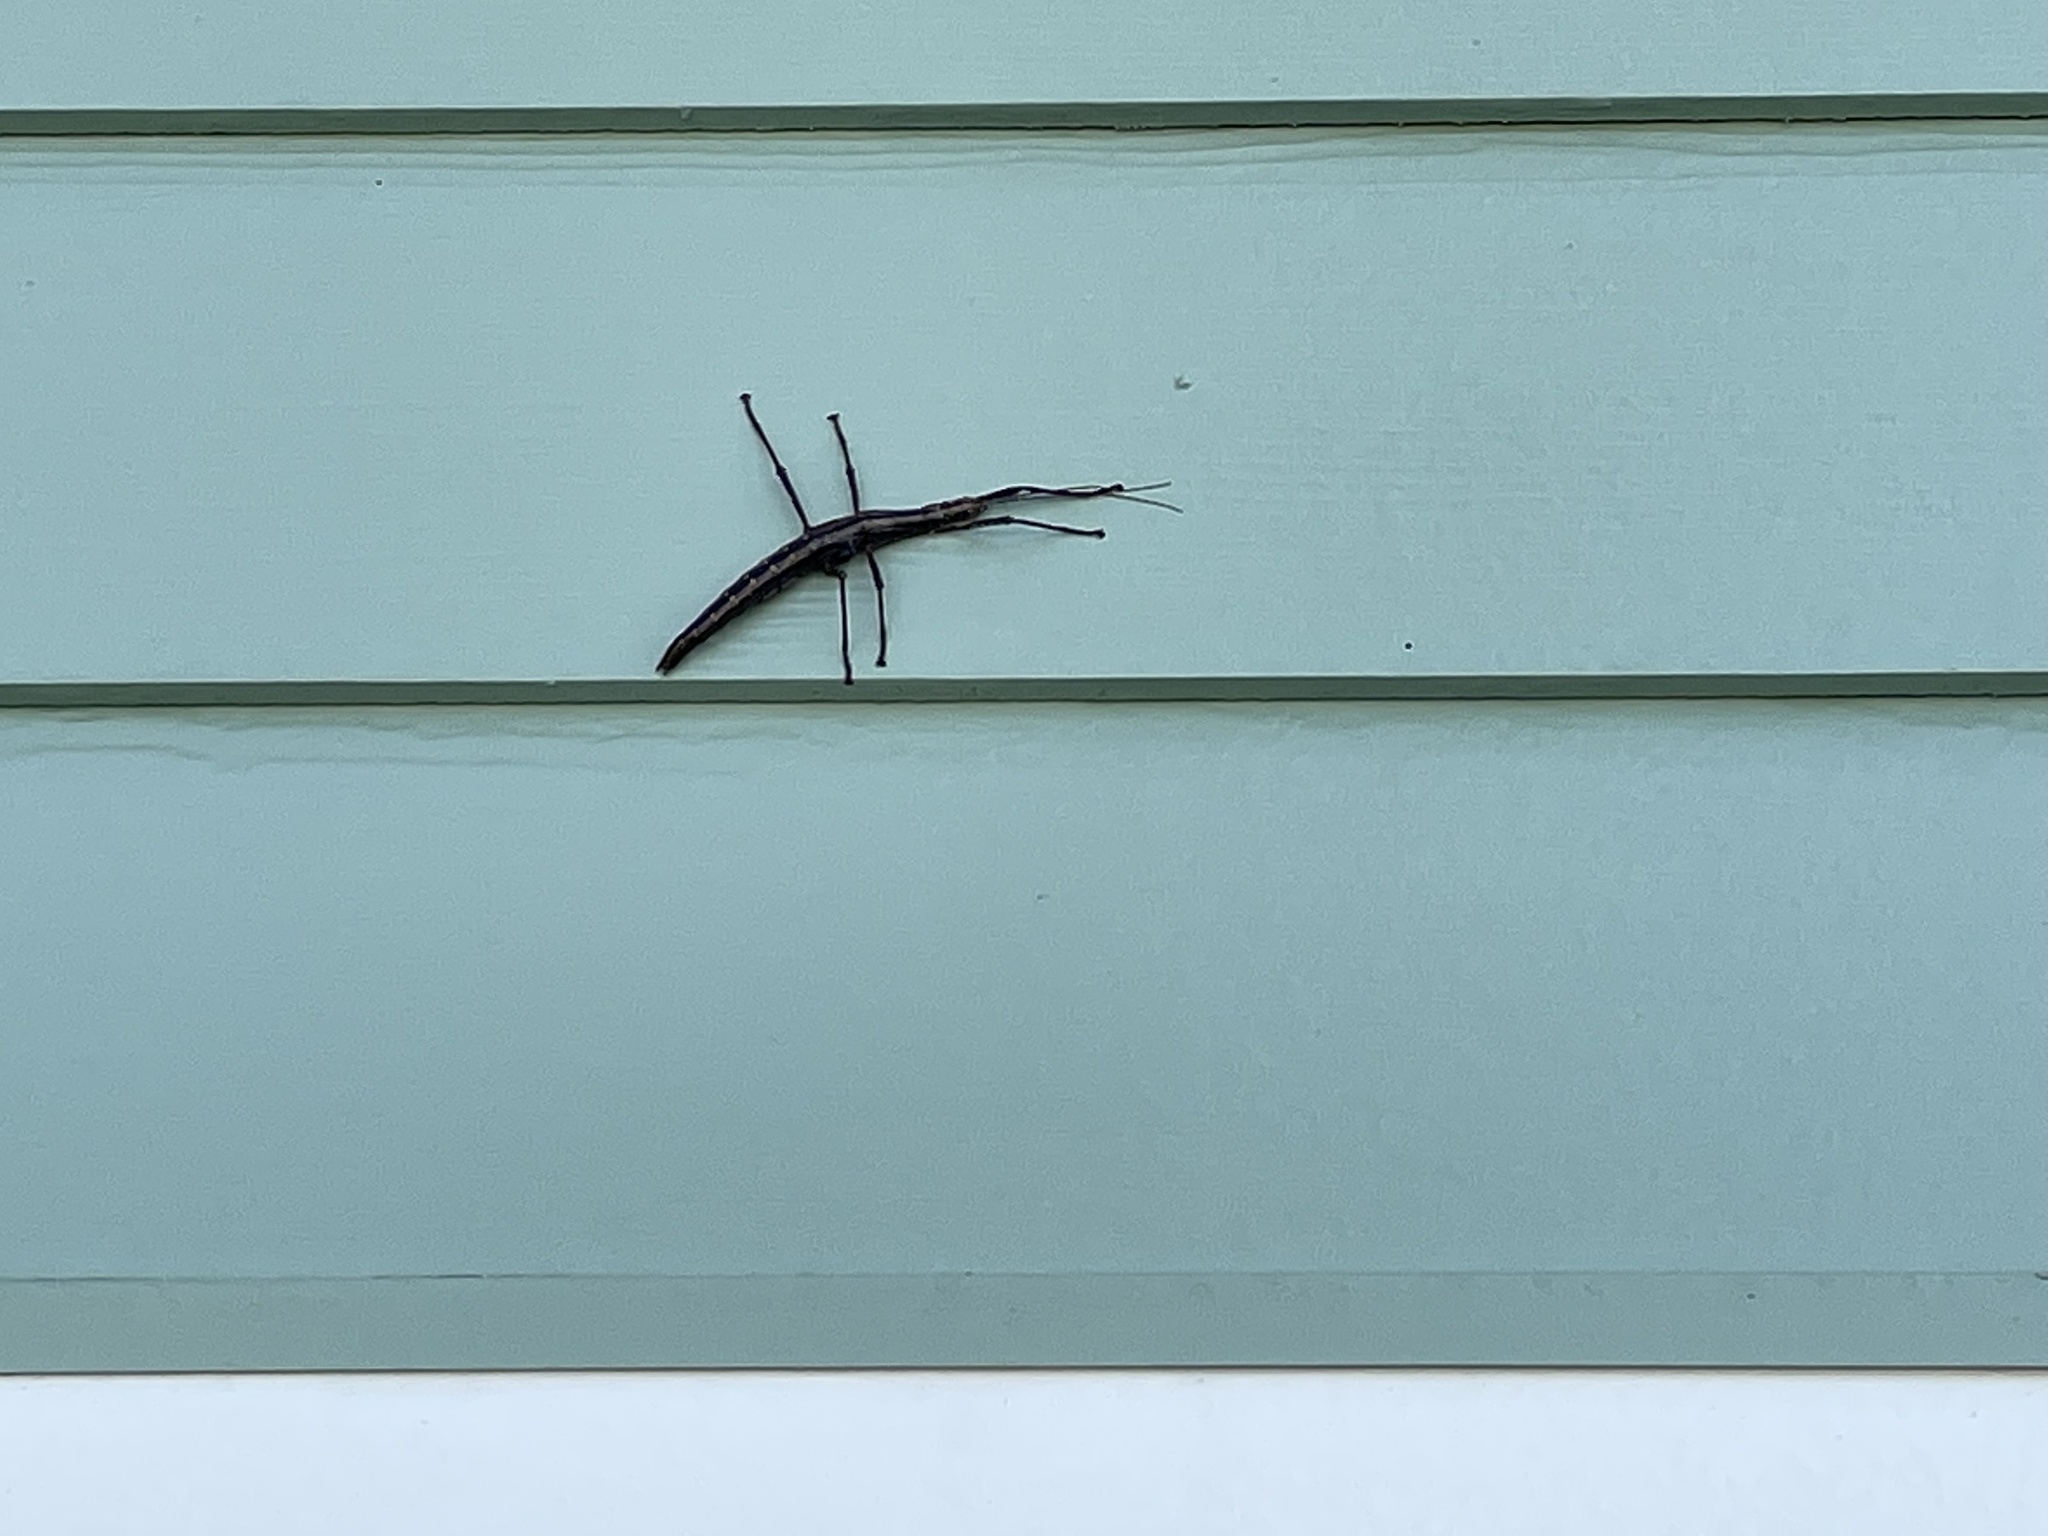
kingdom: Animalia
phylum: Arthropoda
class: Insecta
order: Phasmida
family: Pseudophasmatidae
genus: Anisomorpha
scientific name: Anisomorpha buprestoides
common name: Florida stick insect
